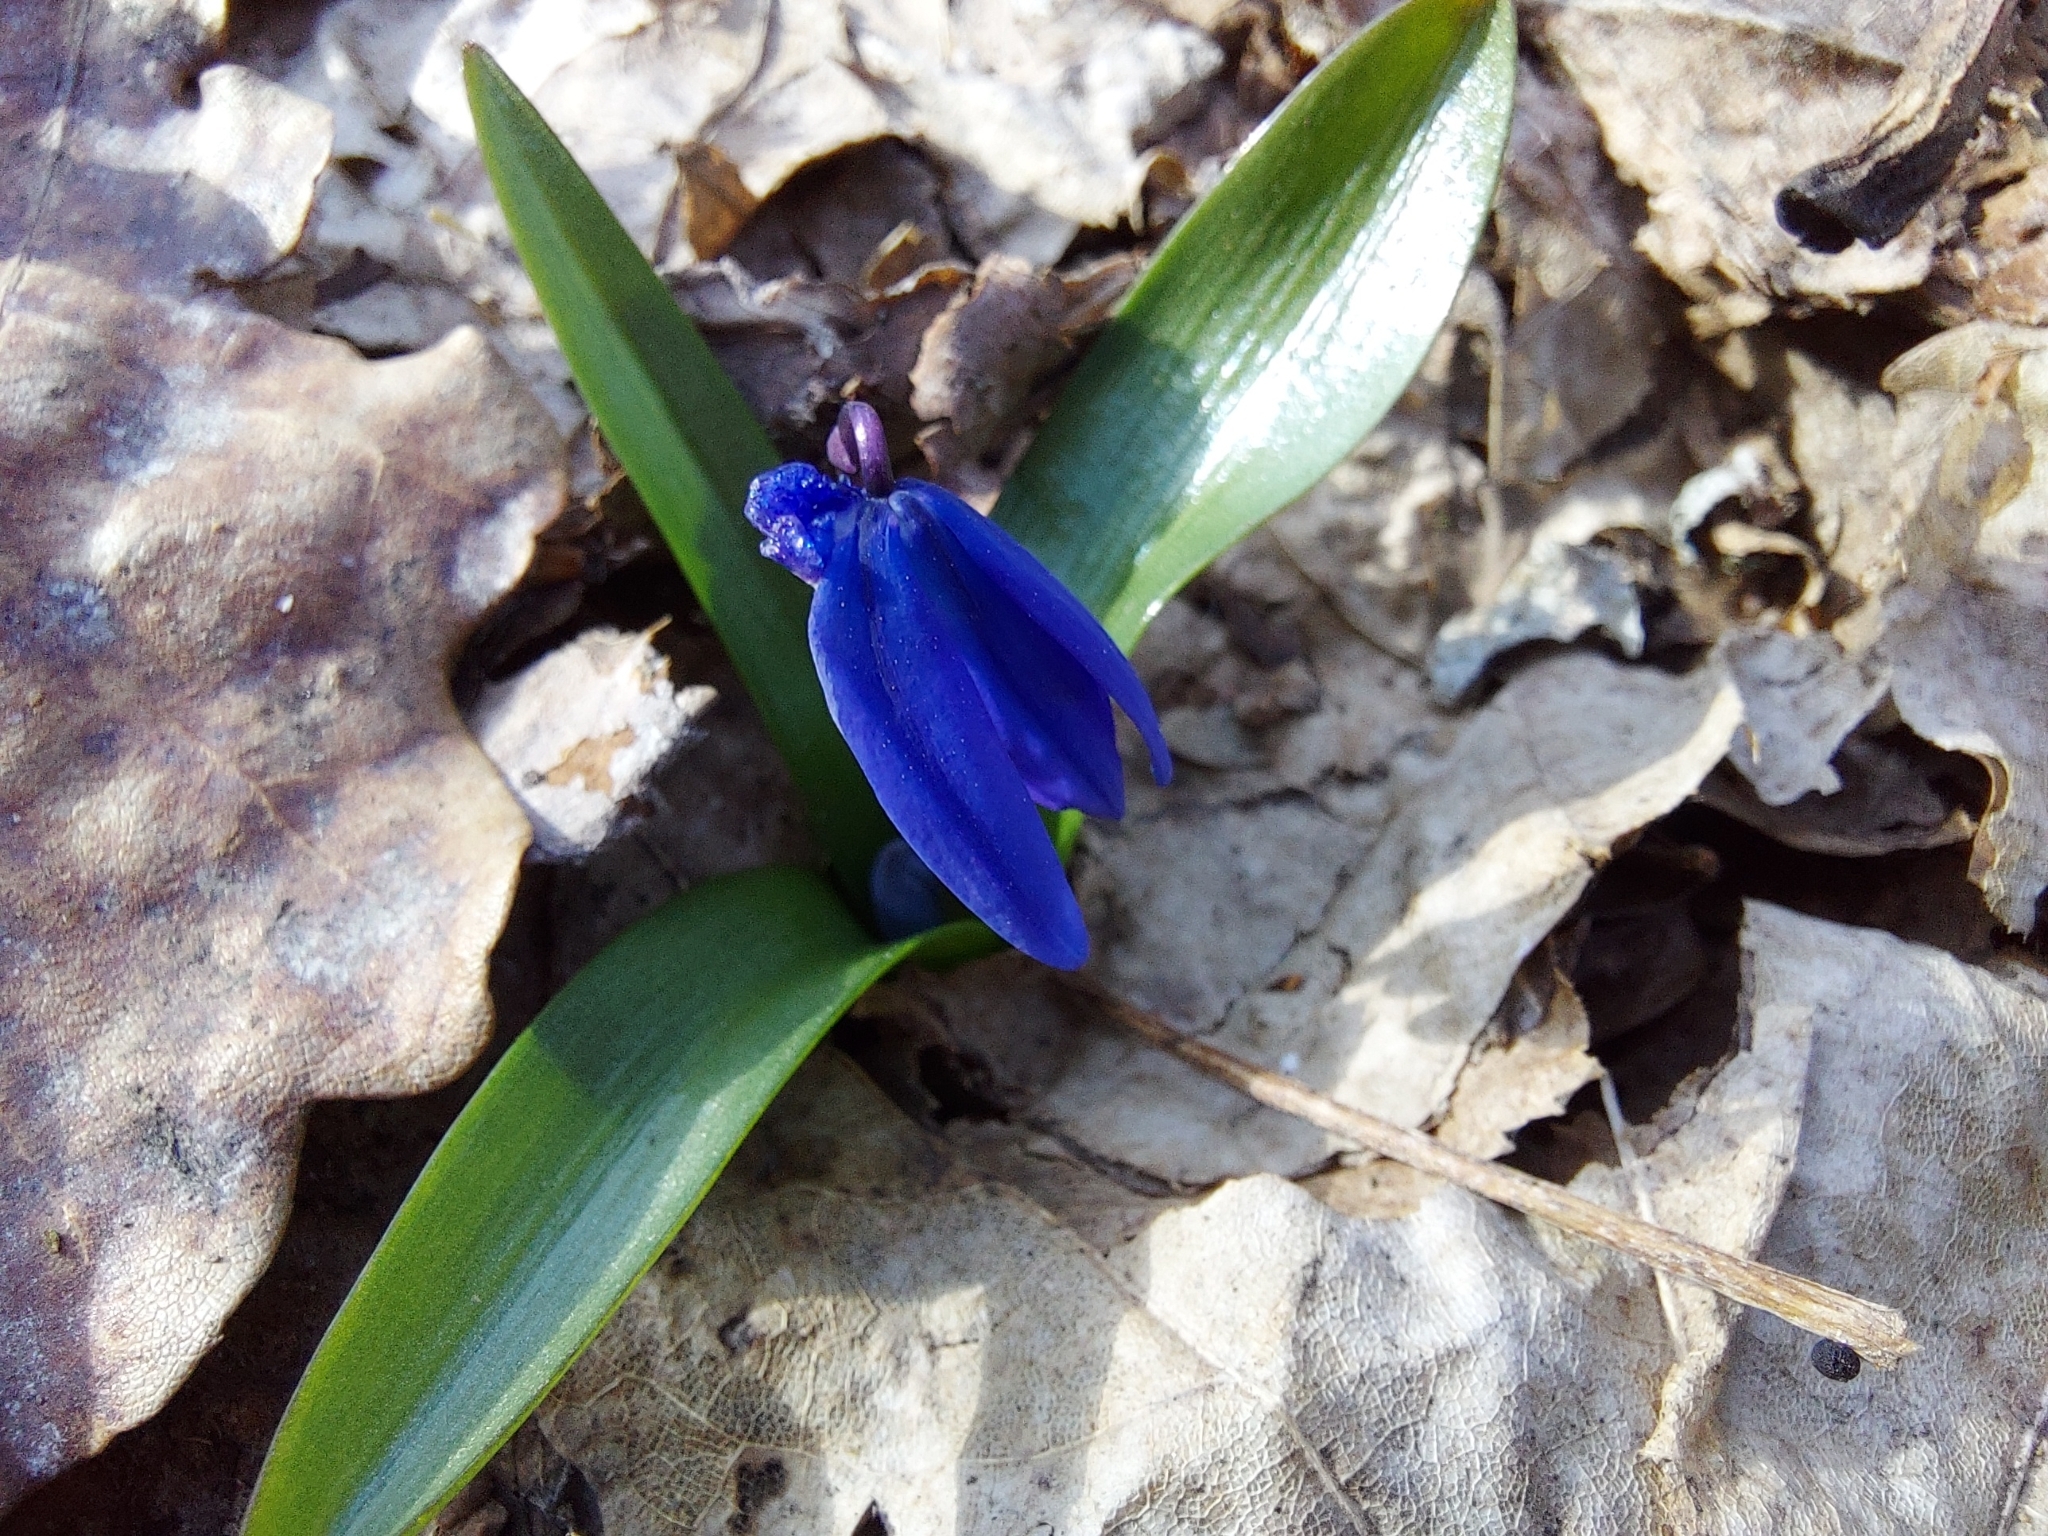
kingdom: Plantae
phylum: Tracheophyta
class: Liliopsida
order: Asparagales
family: Asparagaceae
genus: Scilla
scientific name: Scilla siberica
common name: Siberian squill
